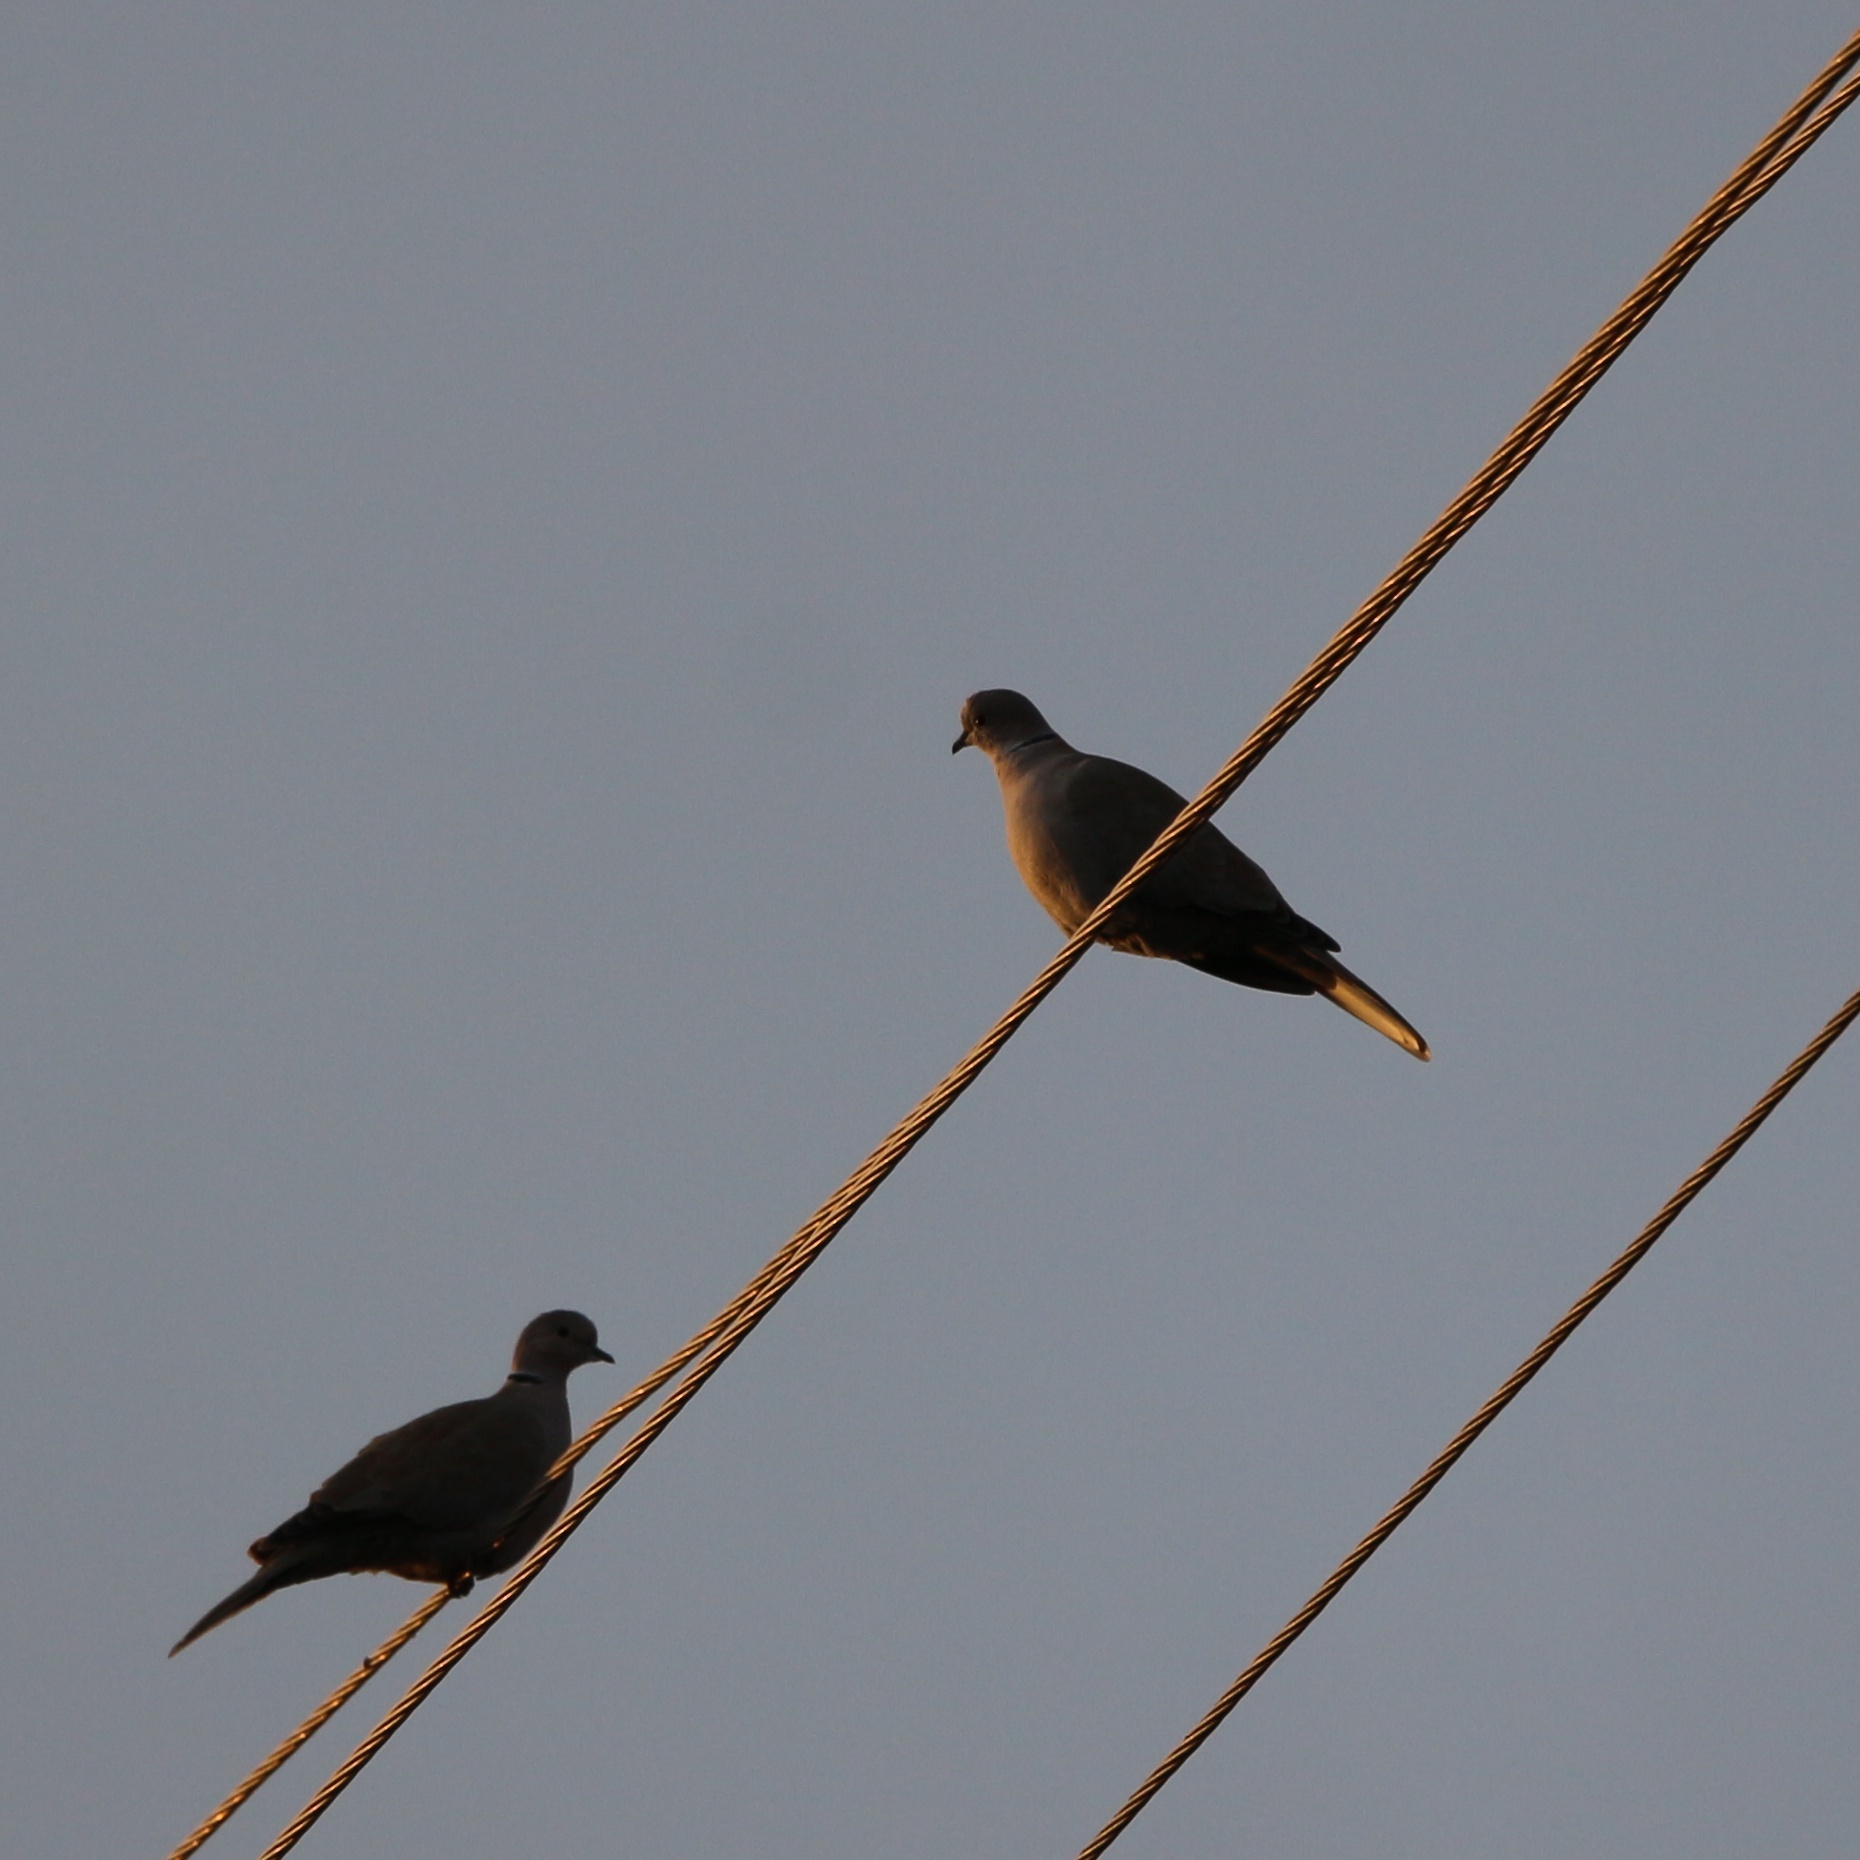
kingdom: Animalia
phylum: Chordata
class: Aves
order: Columbiformes
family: Columbidae
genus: Streptopelia
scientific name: Streptopelia decaocto
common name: Eurasian collared dove
